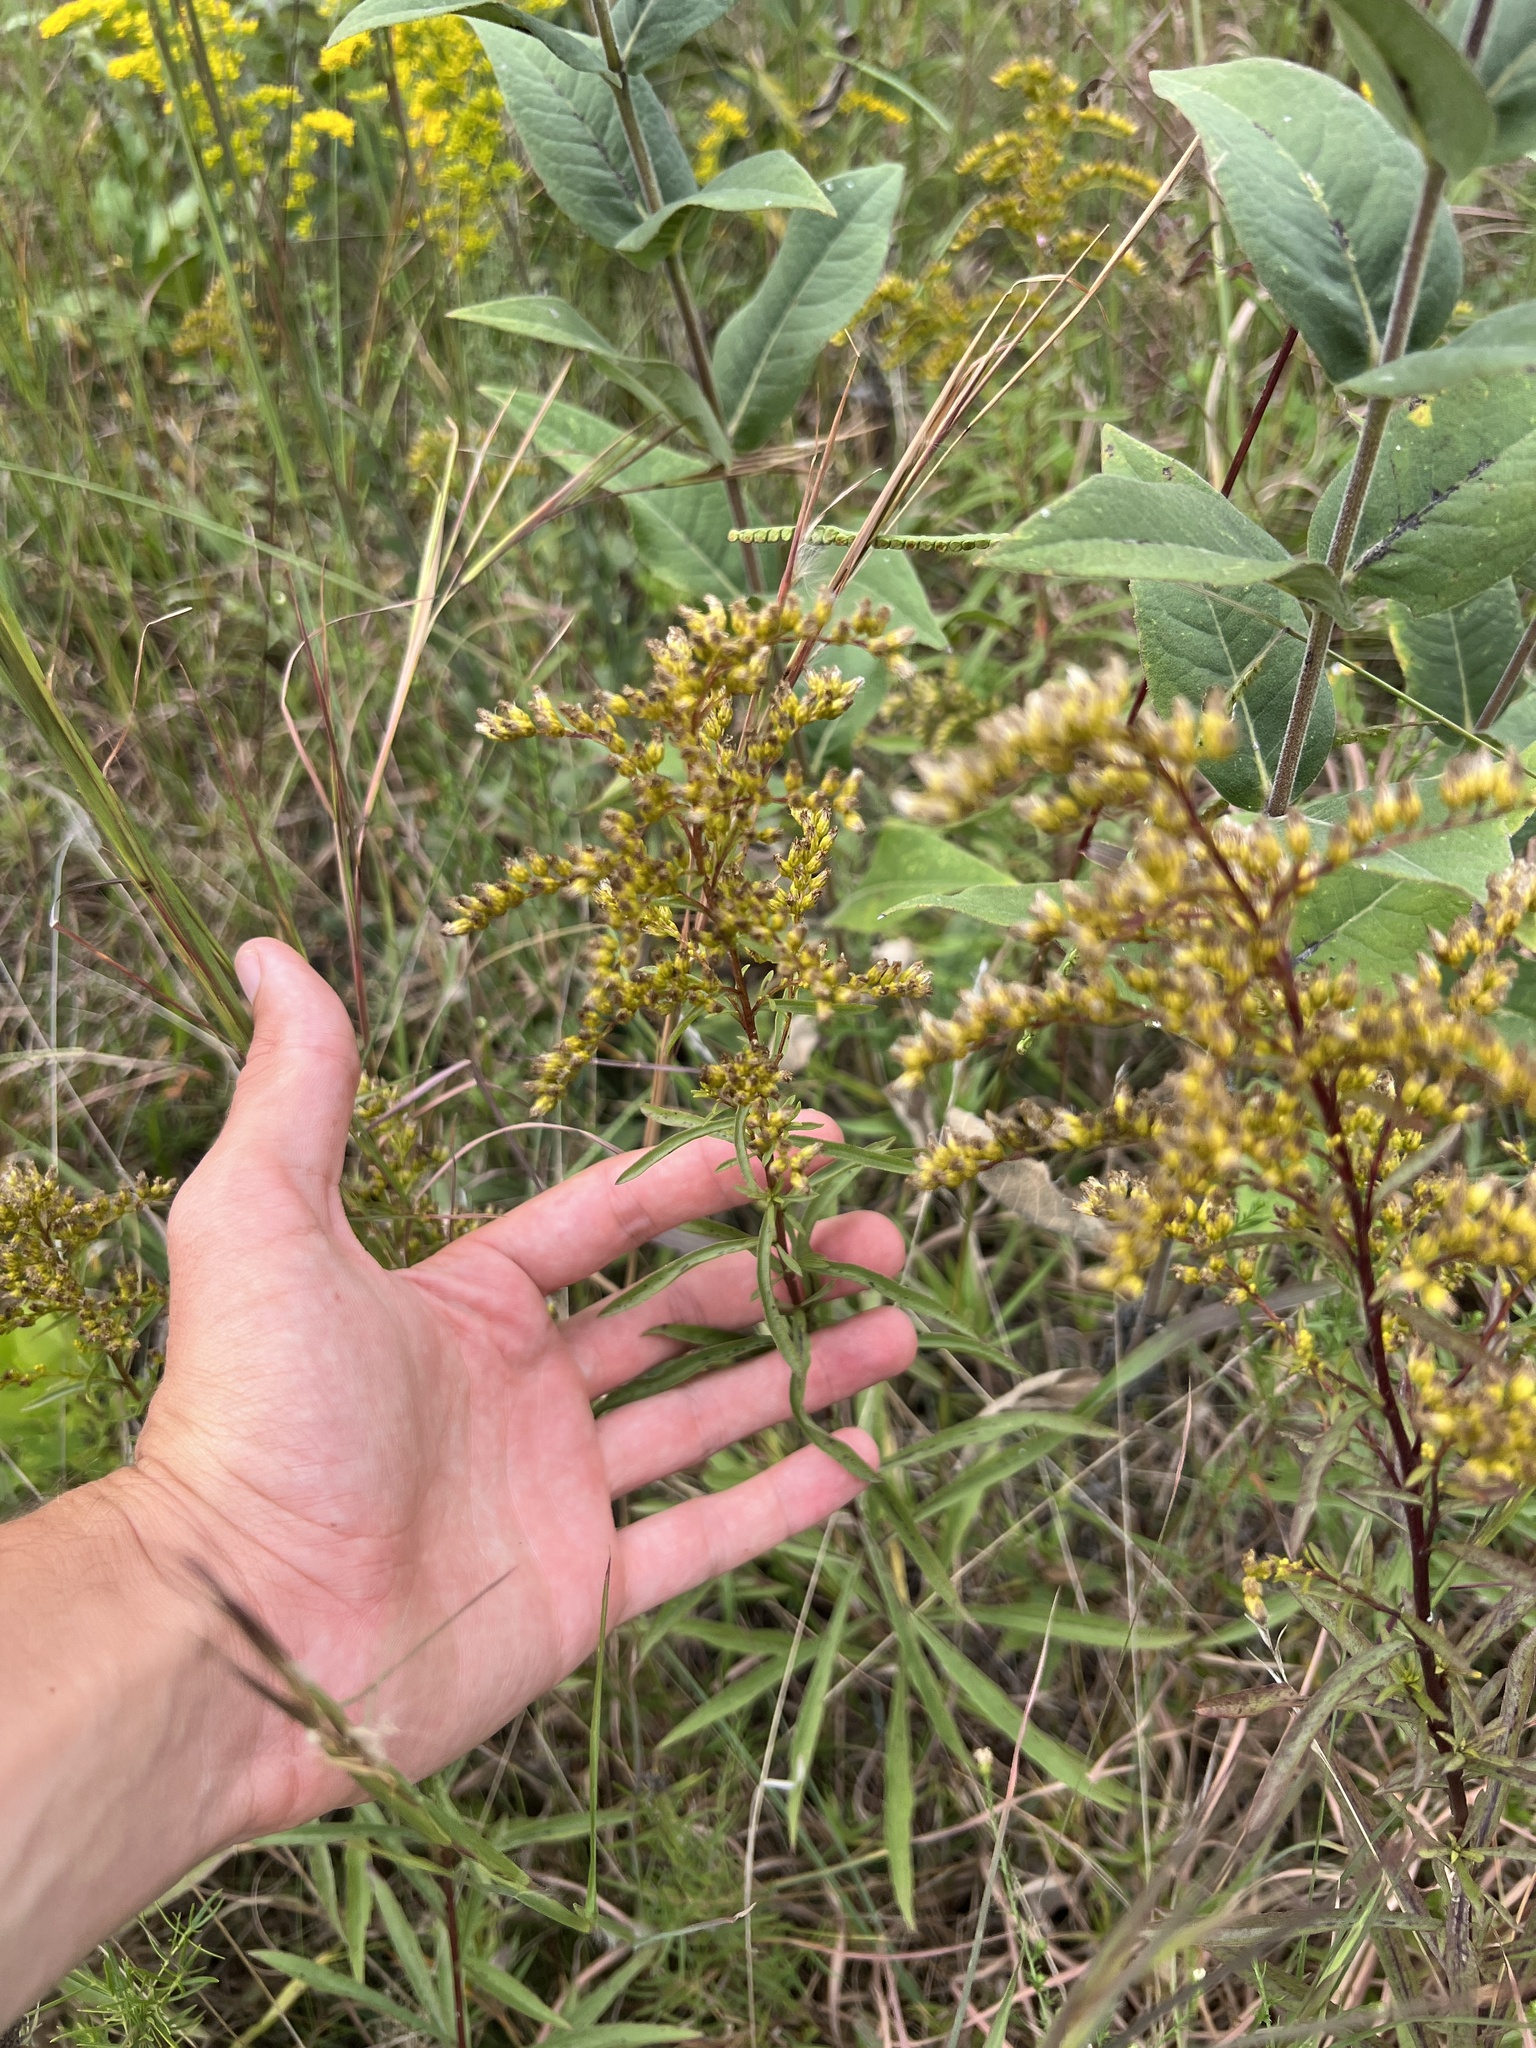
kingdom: Plantae
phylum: Tracheophyta
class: Magnoliopsida
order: Asterales
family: Asteraceae
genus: Solidago
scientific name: Solidago missouriensis
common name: Prairie goldenrod
